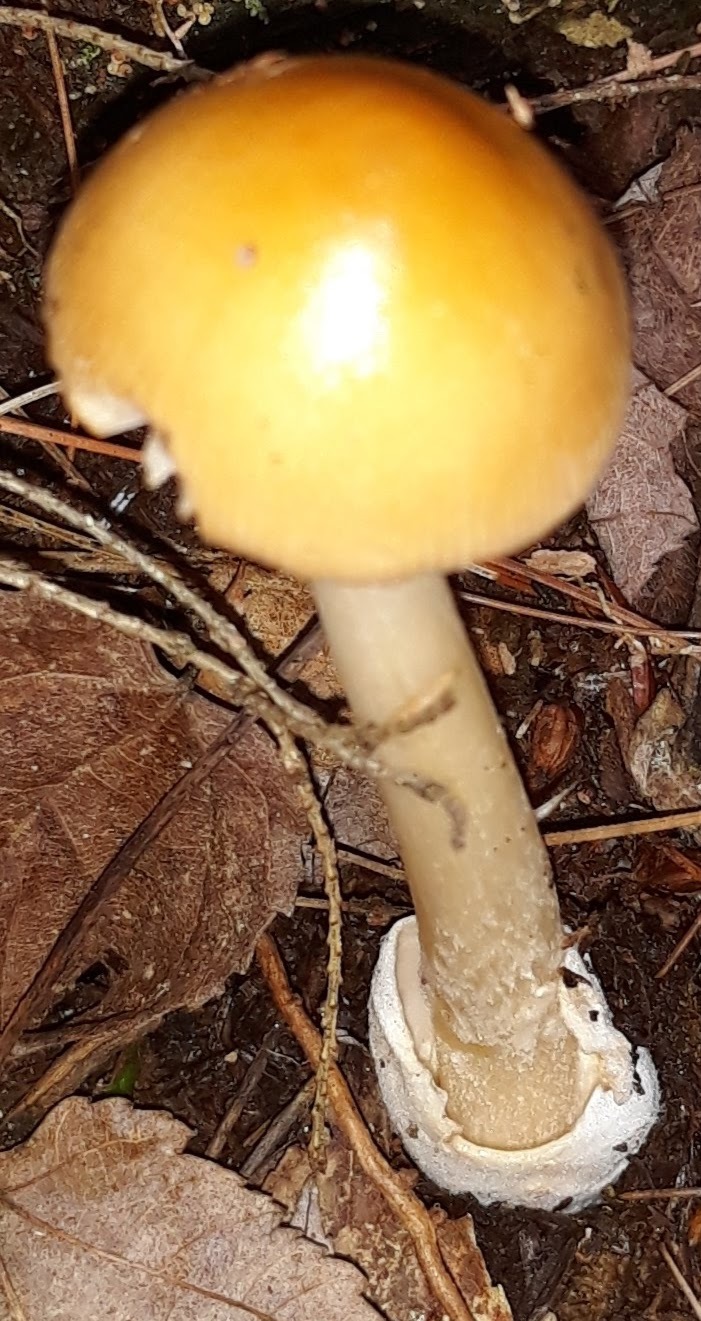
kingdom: Fungi
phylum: Basidiomycota
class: Agaricomycetes
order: Agaricales
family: Amanitaceae
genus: Amanita
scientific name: Amanita
